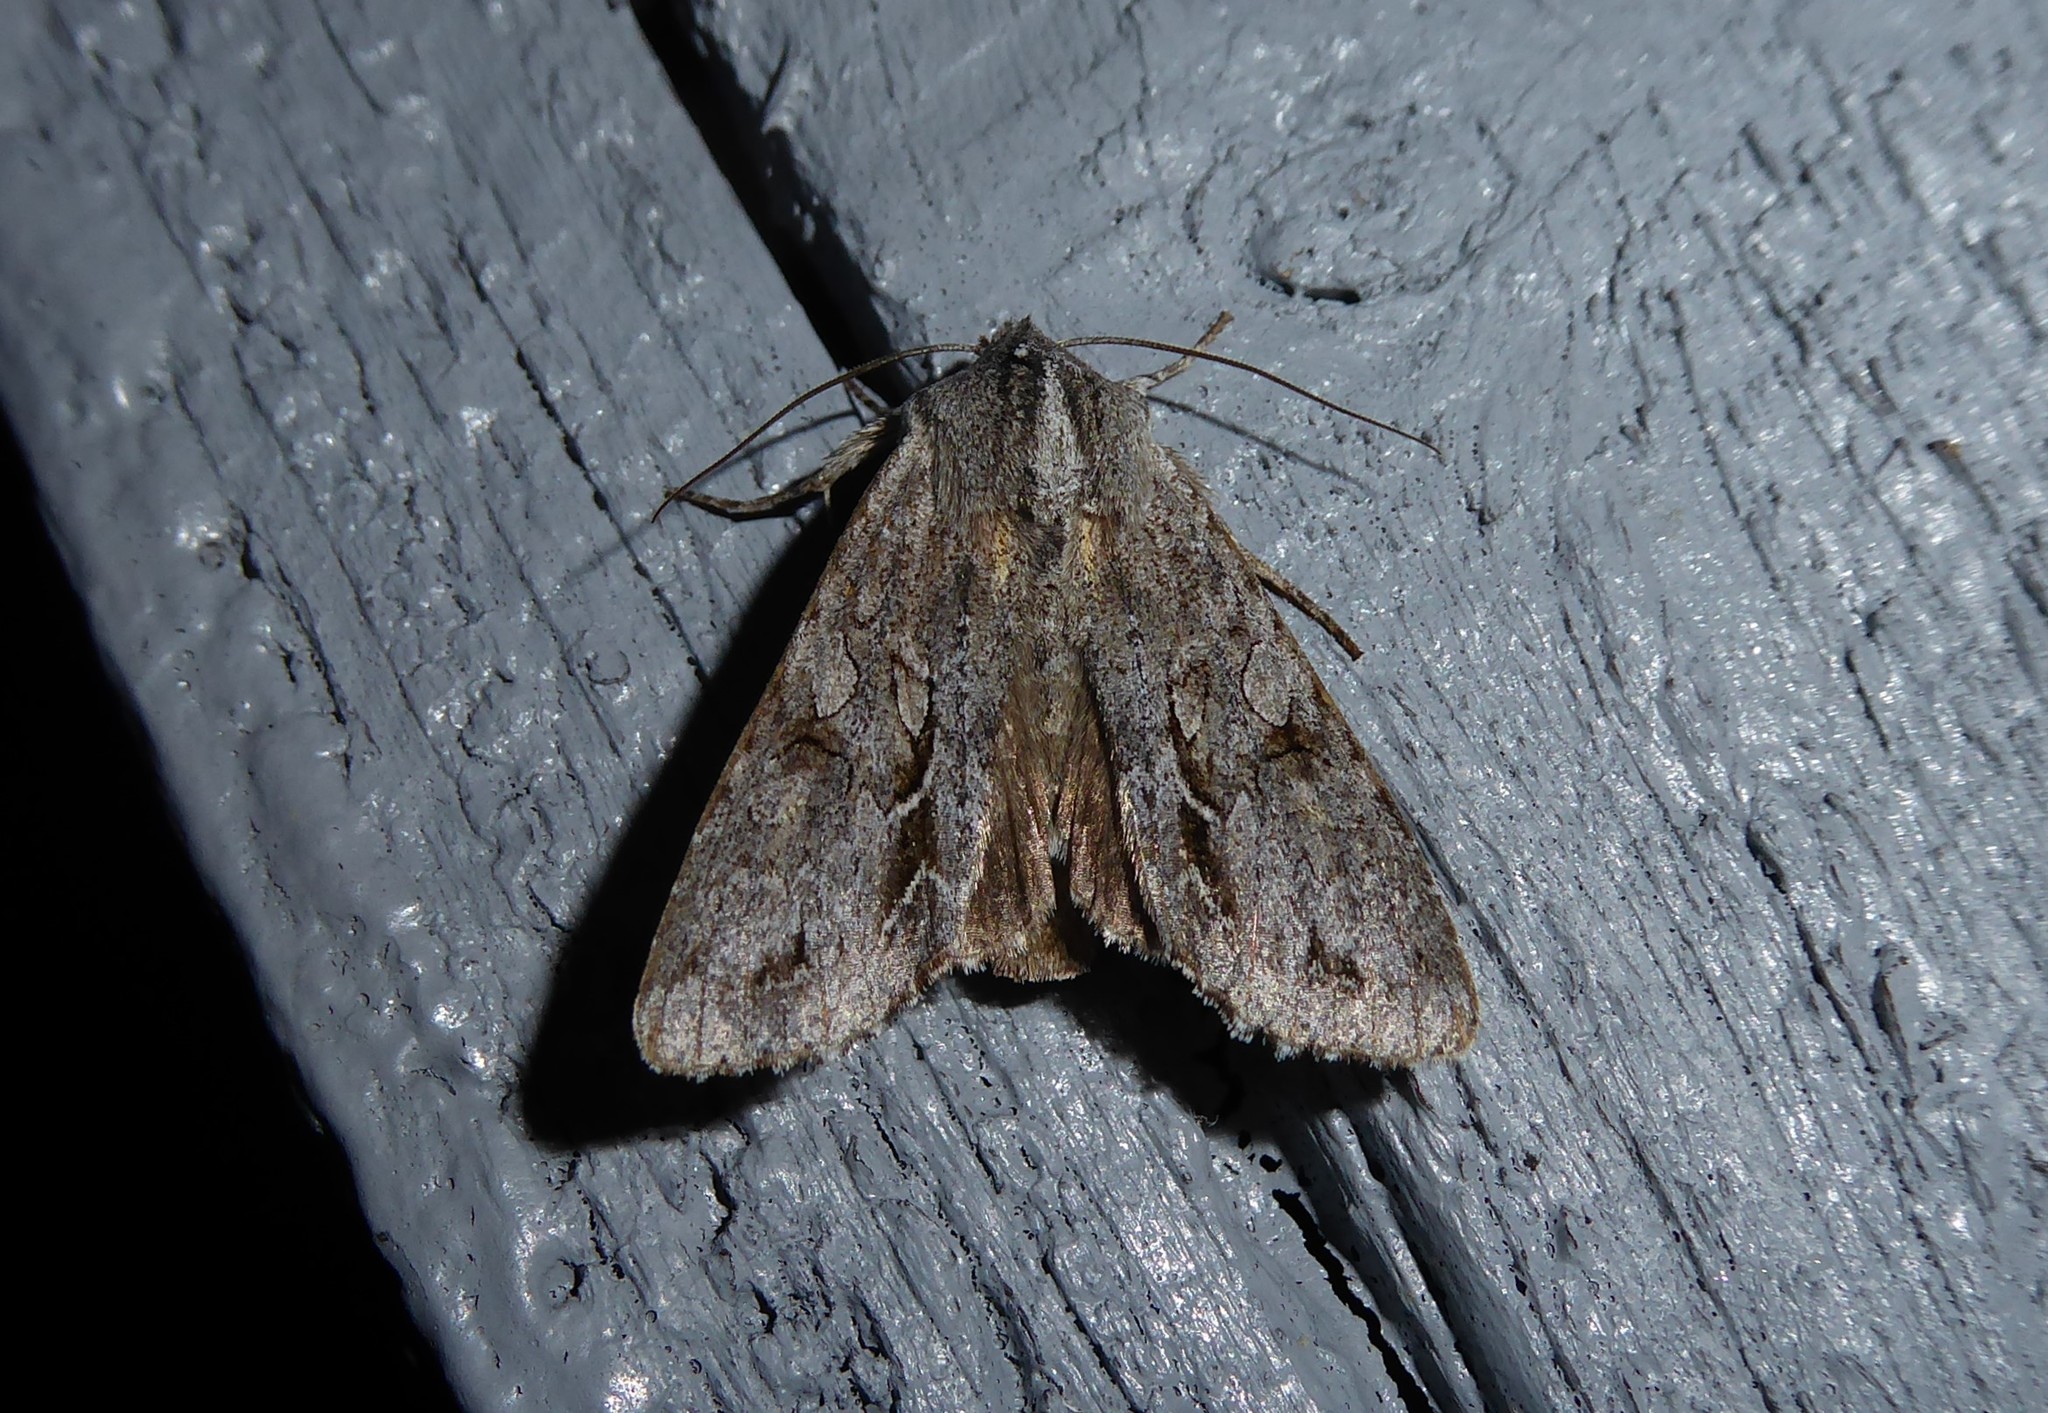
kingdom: Animalia
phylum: Arthropoda
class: Insecta
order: Lepidoptera
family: Noctuidae
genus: Ichneutica
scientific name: Ichneutica
